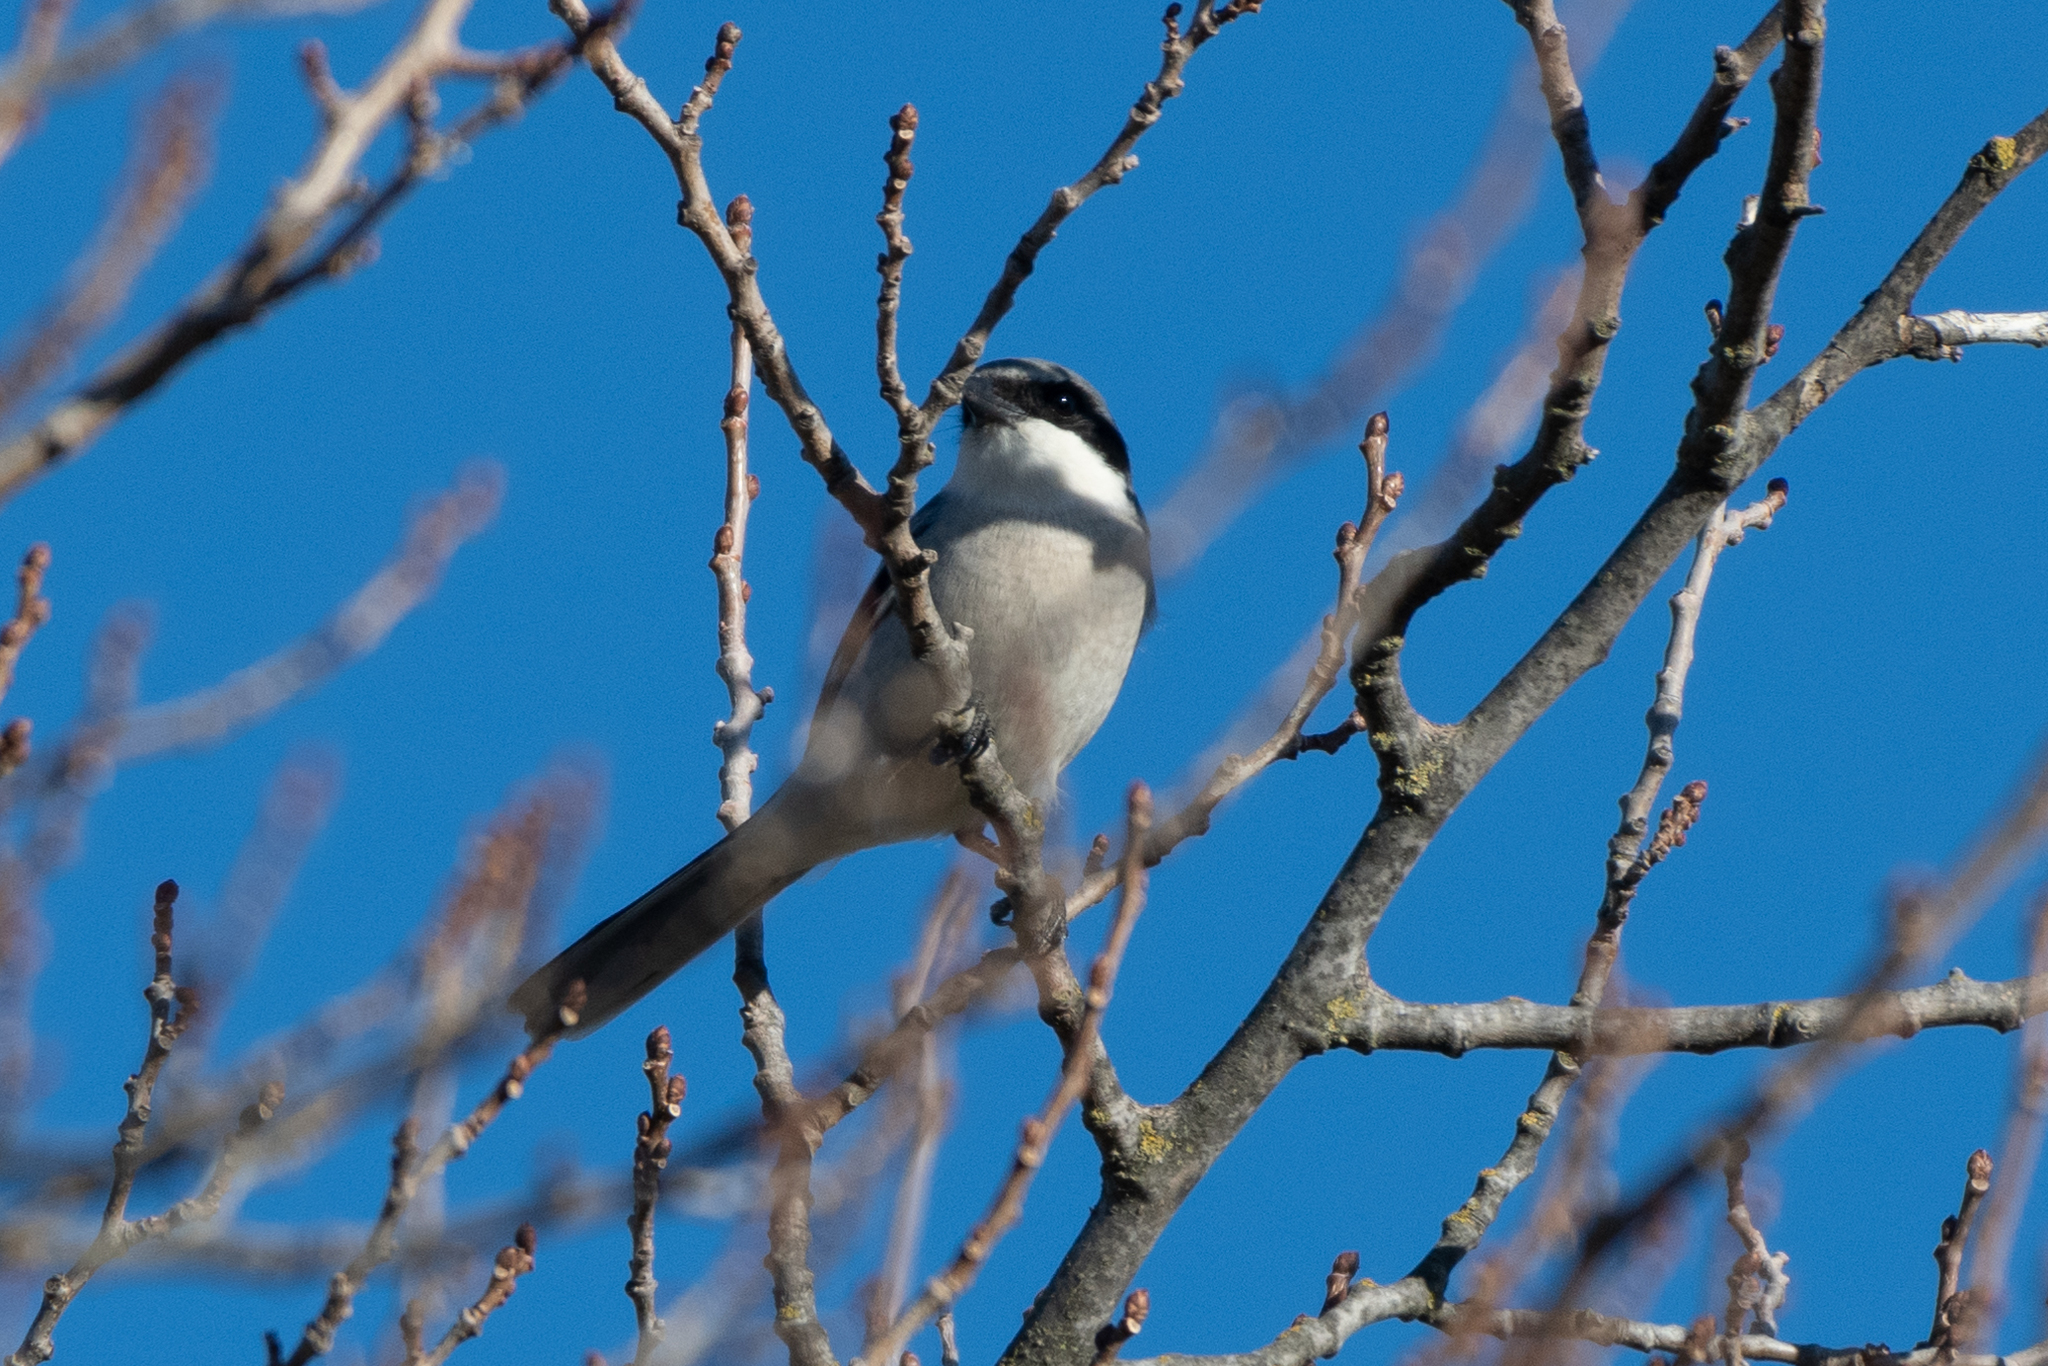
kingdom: Animalia
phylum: Chordata
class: Aves
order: Passeriformes
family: Laniidae
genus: Lanius
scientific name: Lanius ludovicianus
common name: Loggerhead shrike
